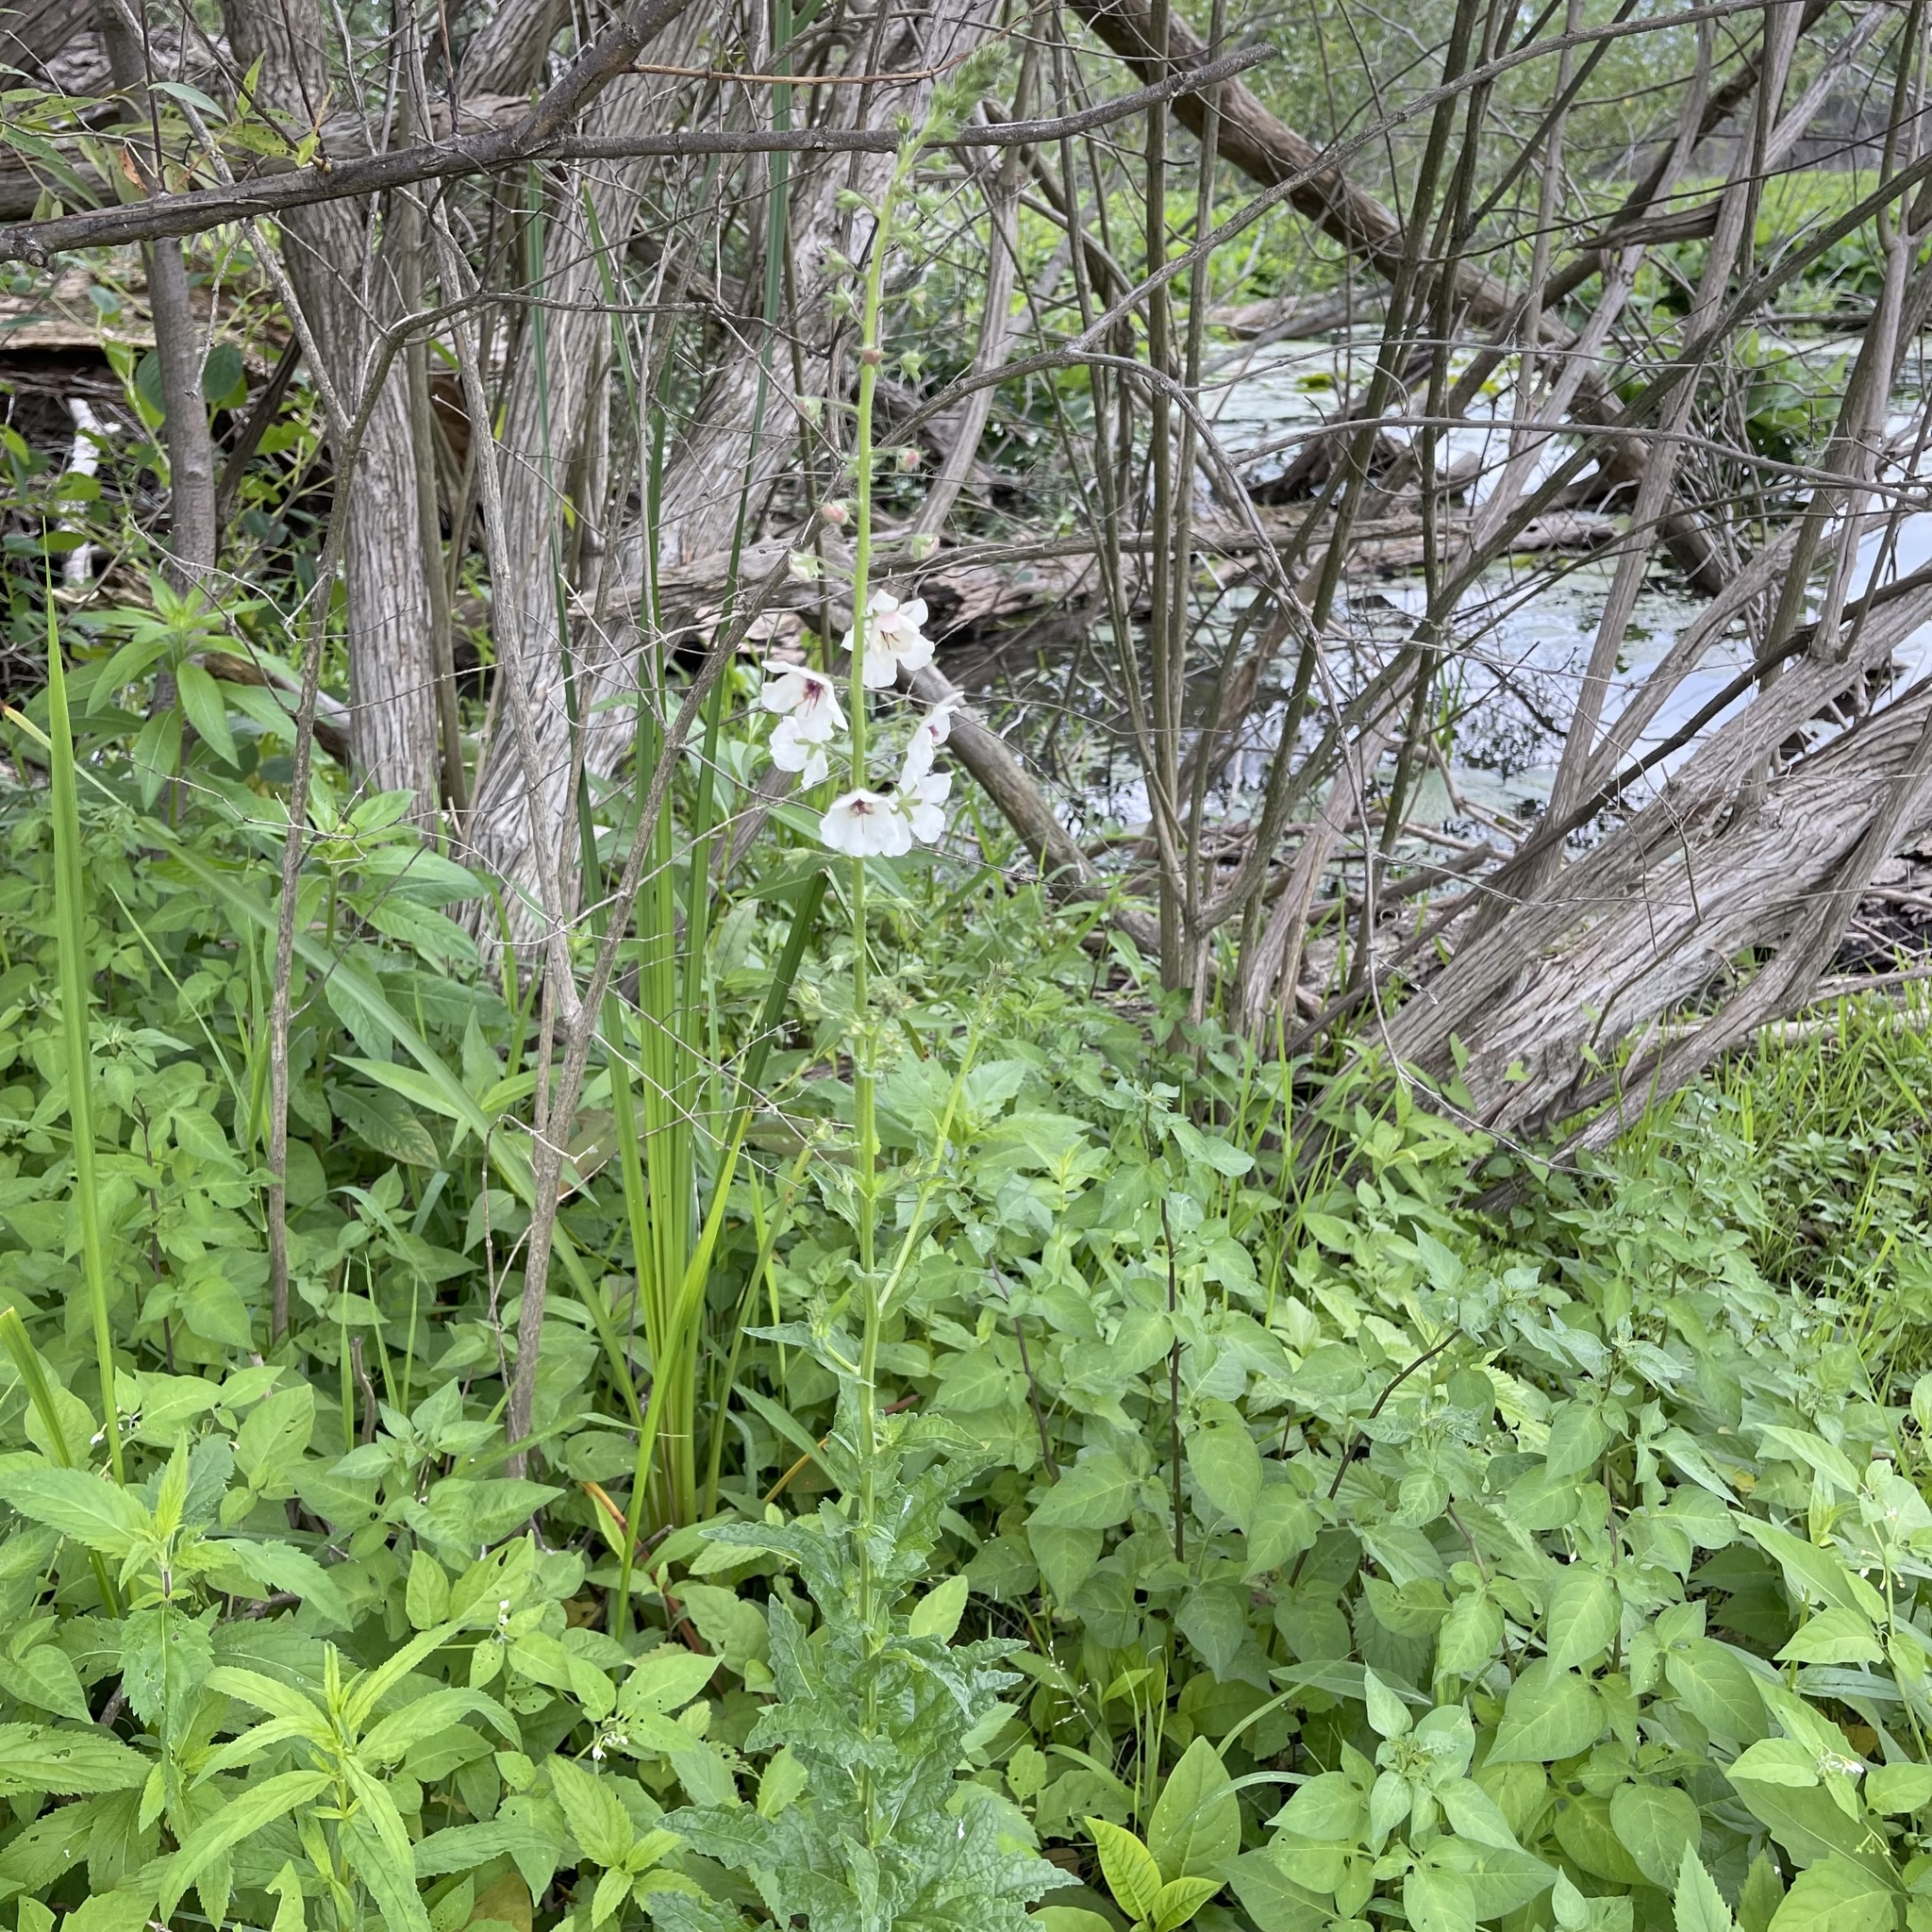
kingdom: Plantae
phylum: Tracheophyta
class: Magnoliopsida
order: Lamiales
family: Scrophulariaceae
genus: Verbascum
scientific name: Verbascum blattaria
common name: Moth mullein
